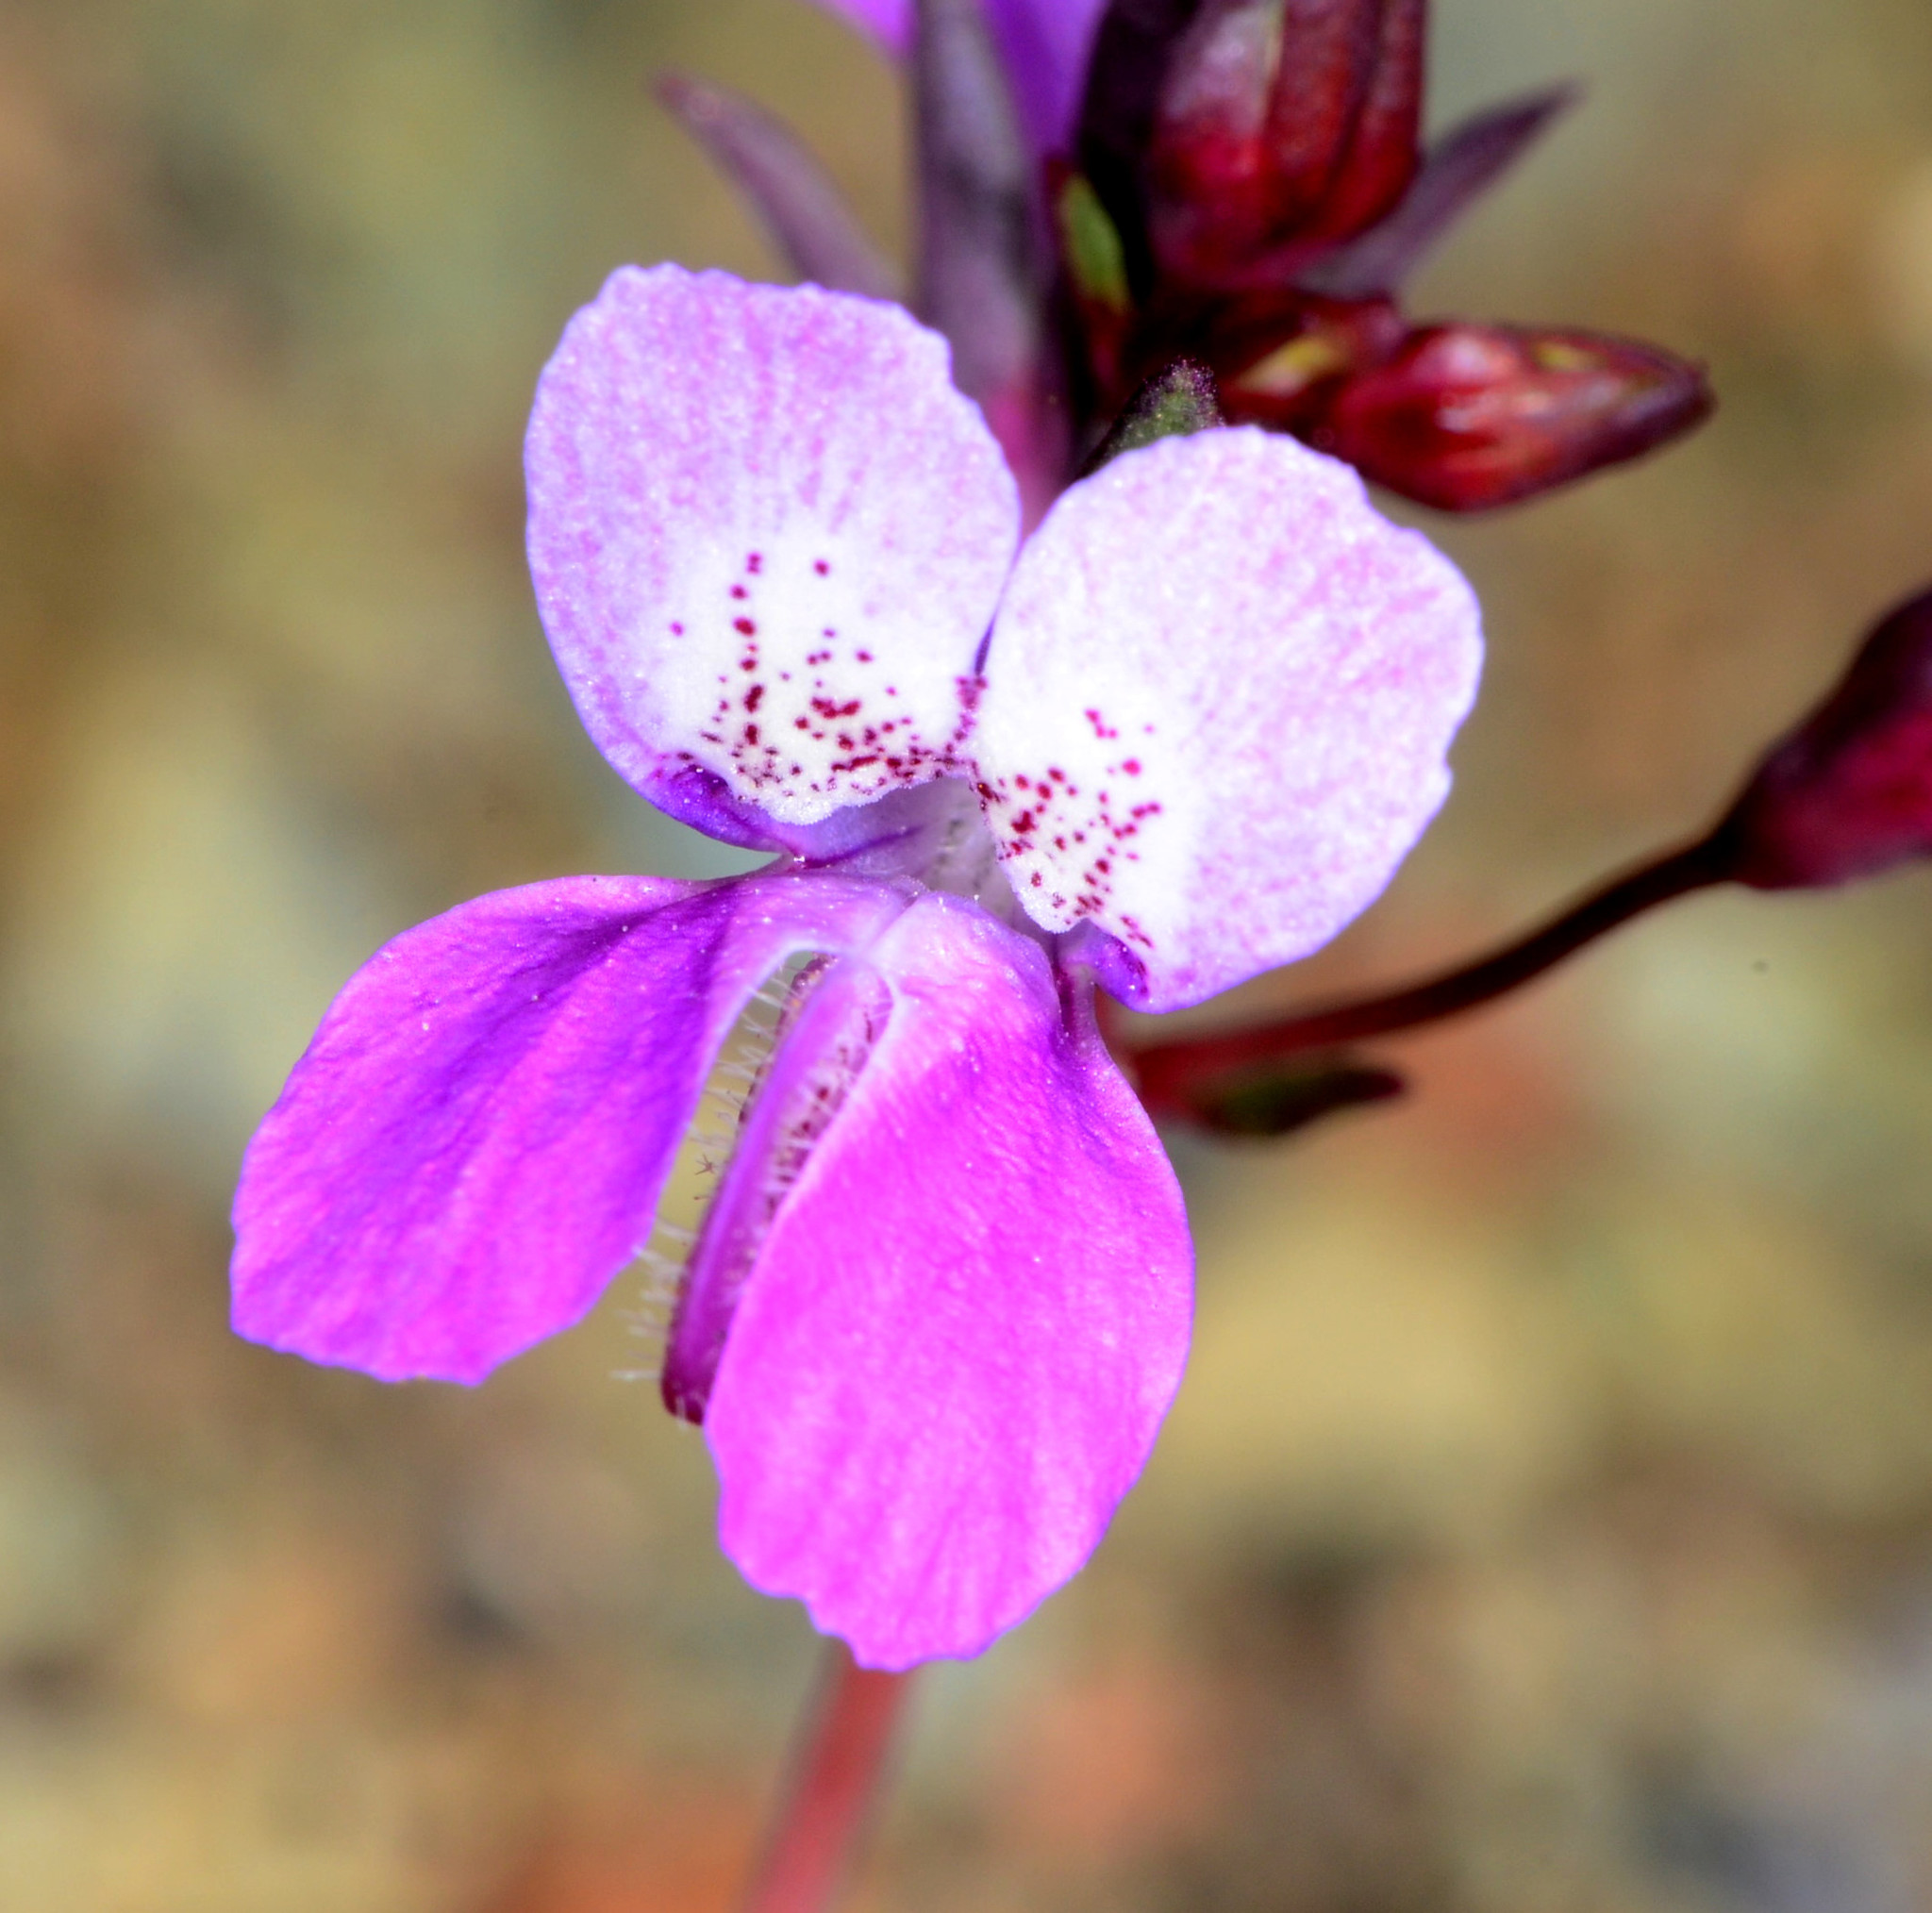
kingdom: Plantae
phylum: Tracheophyta
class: Magnoliopsida
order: Lamiales
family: Plantaginaceae
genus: Collinsia
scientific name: Collinsia sparsiflora
